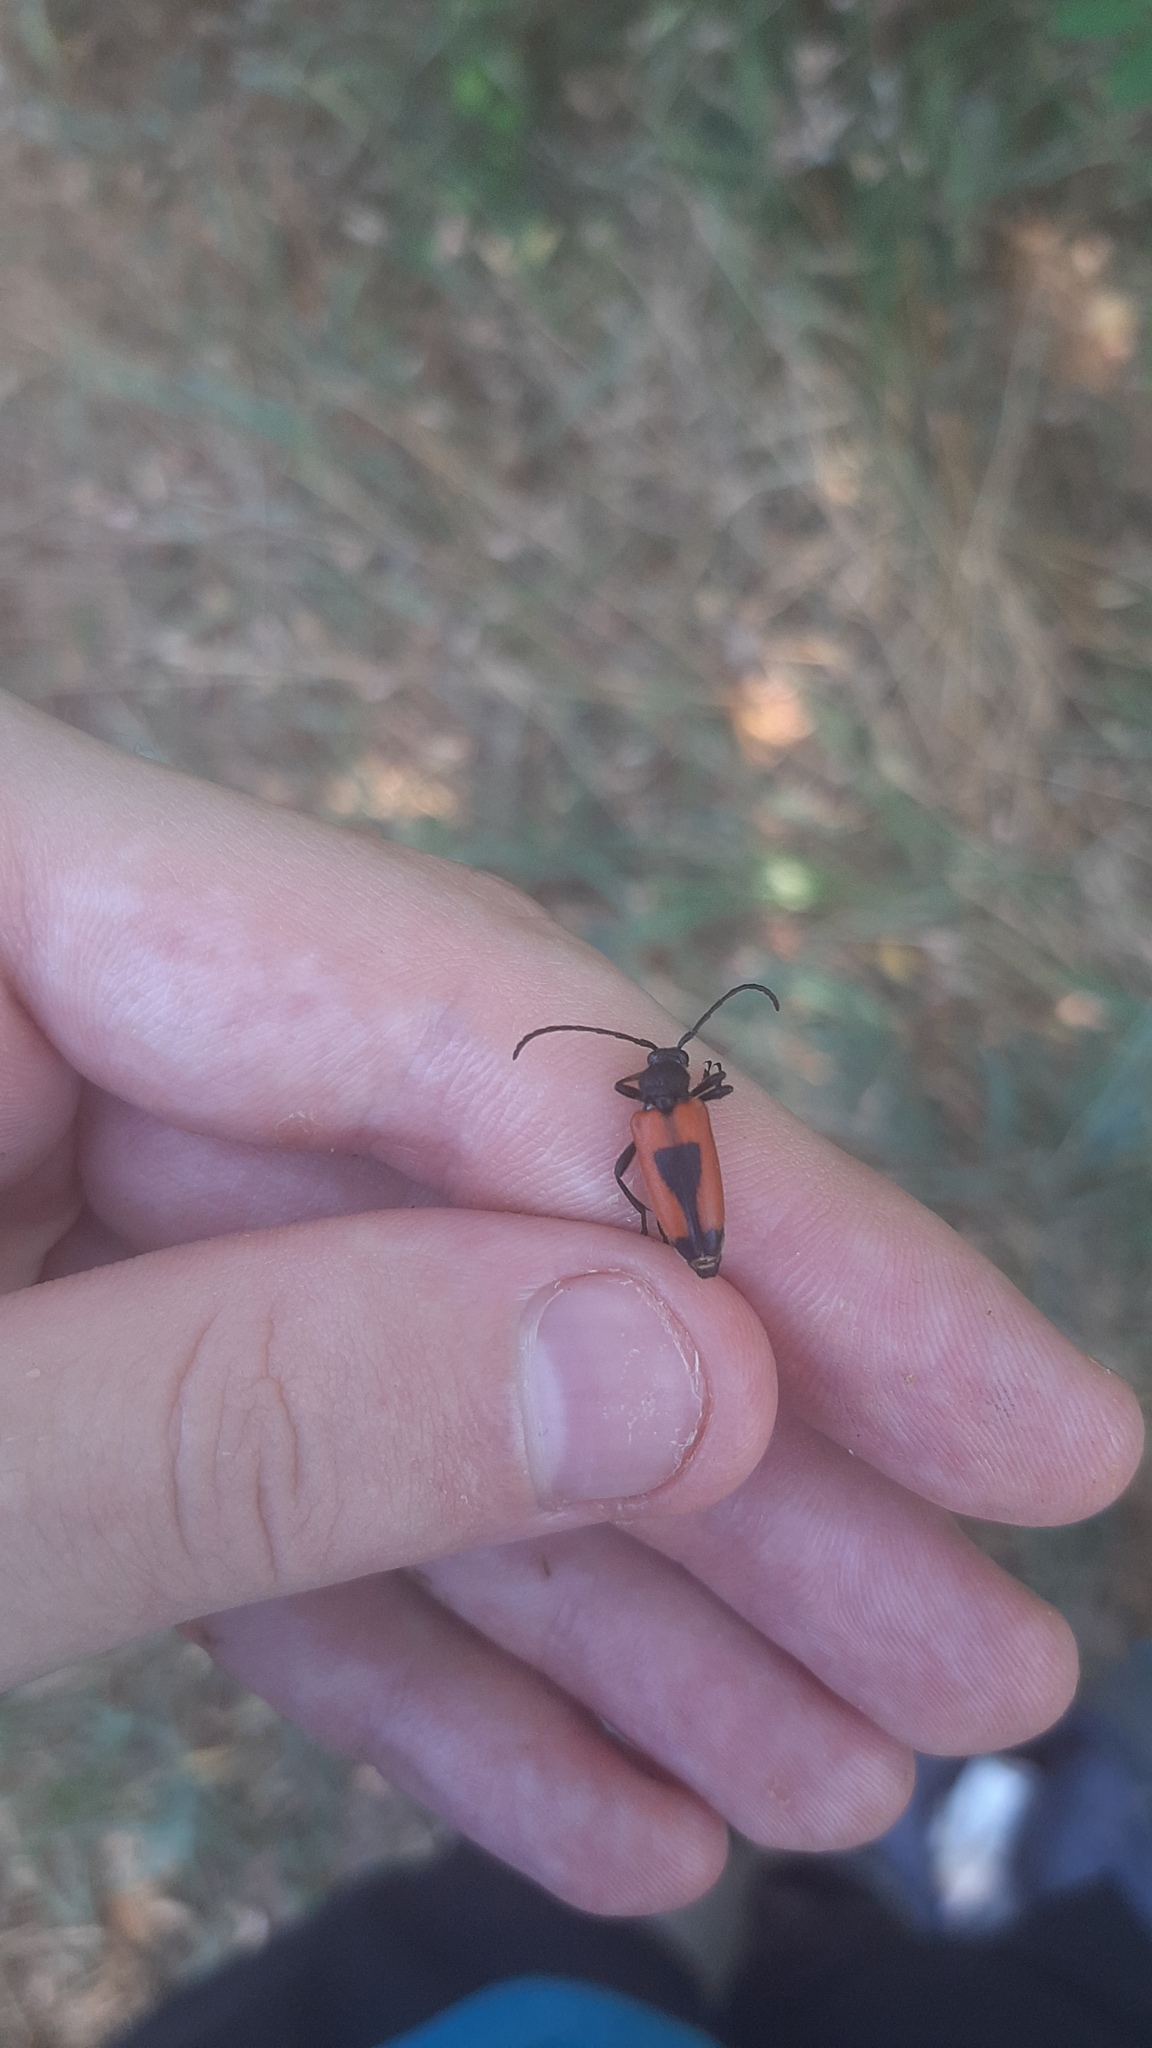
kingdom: Animalia
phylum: Arthropoda
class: Insecta
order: Coleoptera
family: Cerambycidae
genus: Stictoleptura
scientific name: Stictoleptura cordigera
